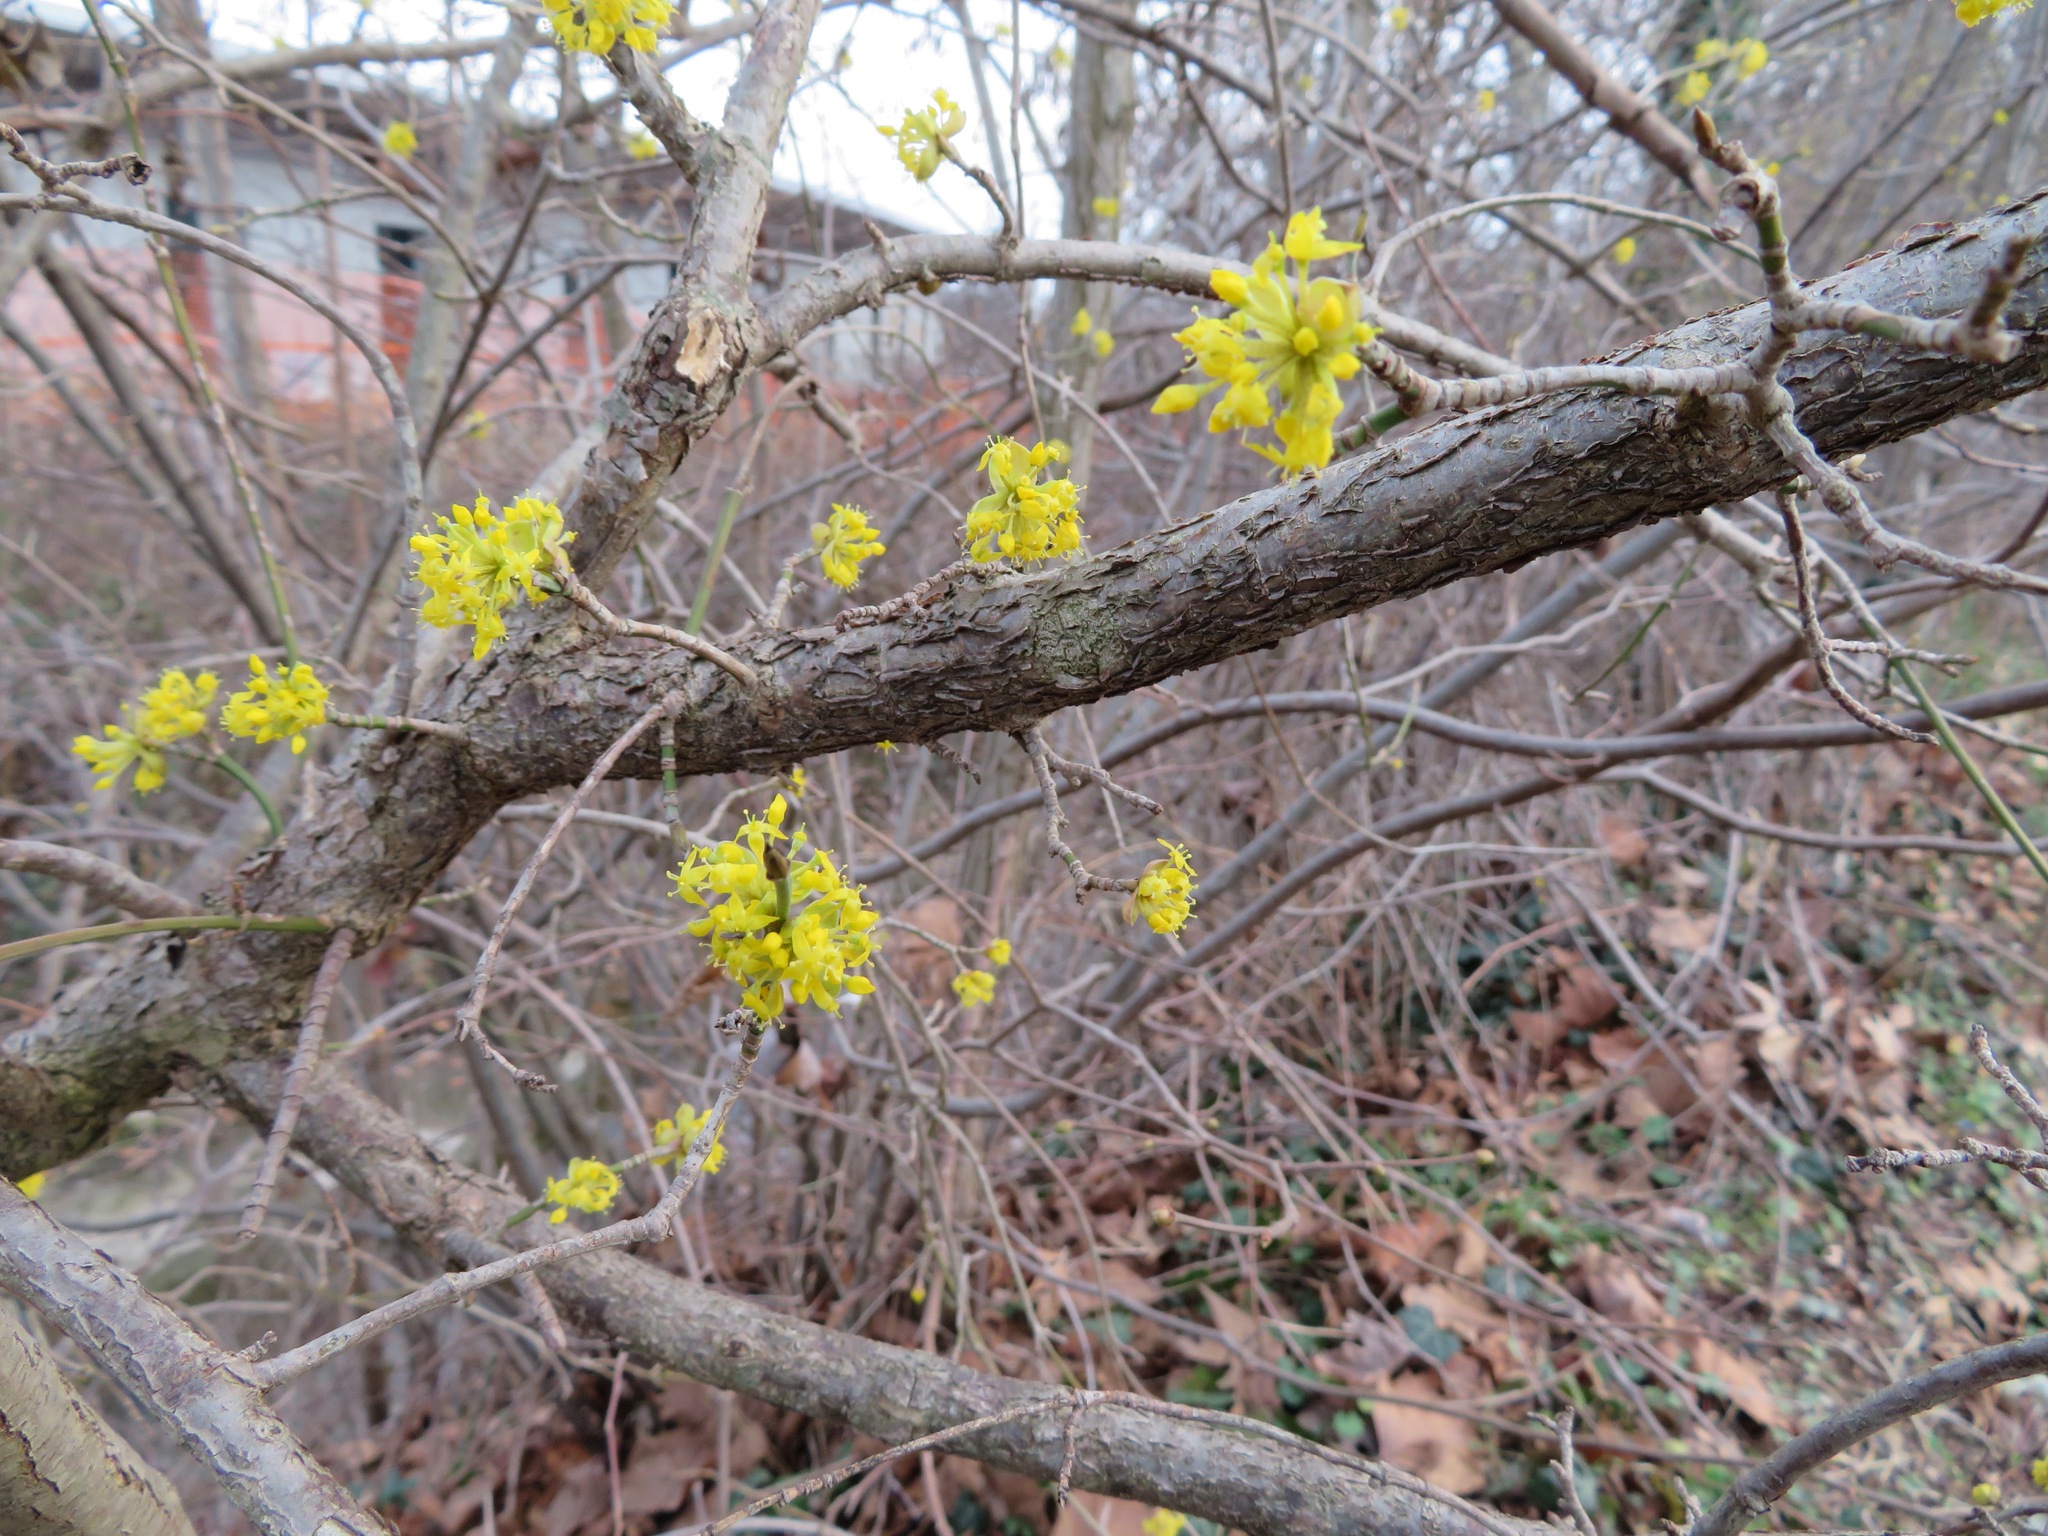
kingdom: Plantae
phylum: Tracheophyta
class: Magnoliopsida
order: Cornales
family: Cornaceae
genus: Cornus
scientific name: Cornus mas
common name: Cornelian-cherry
